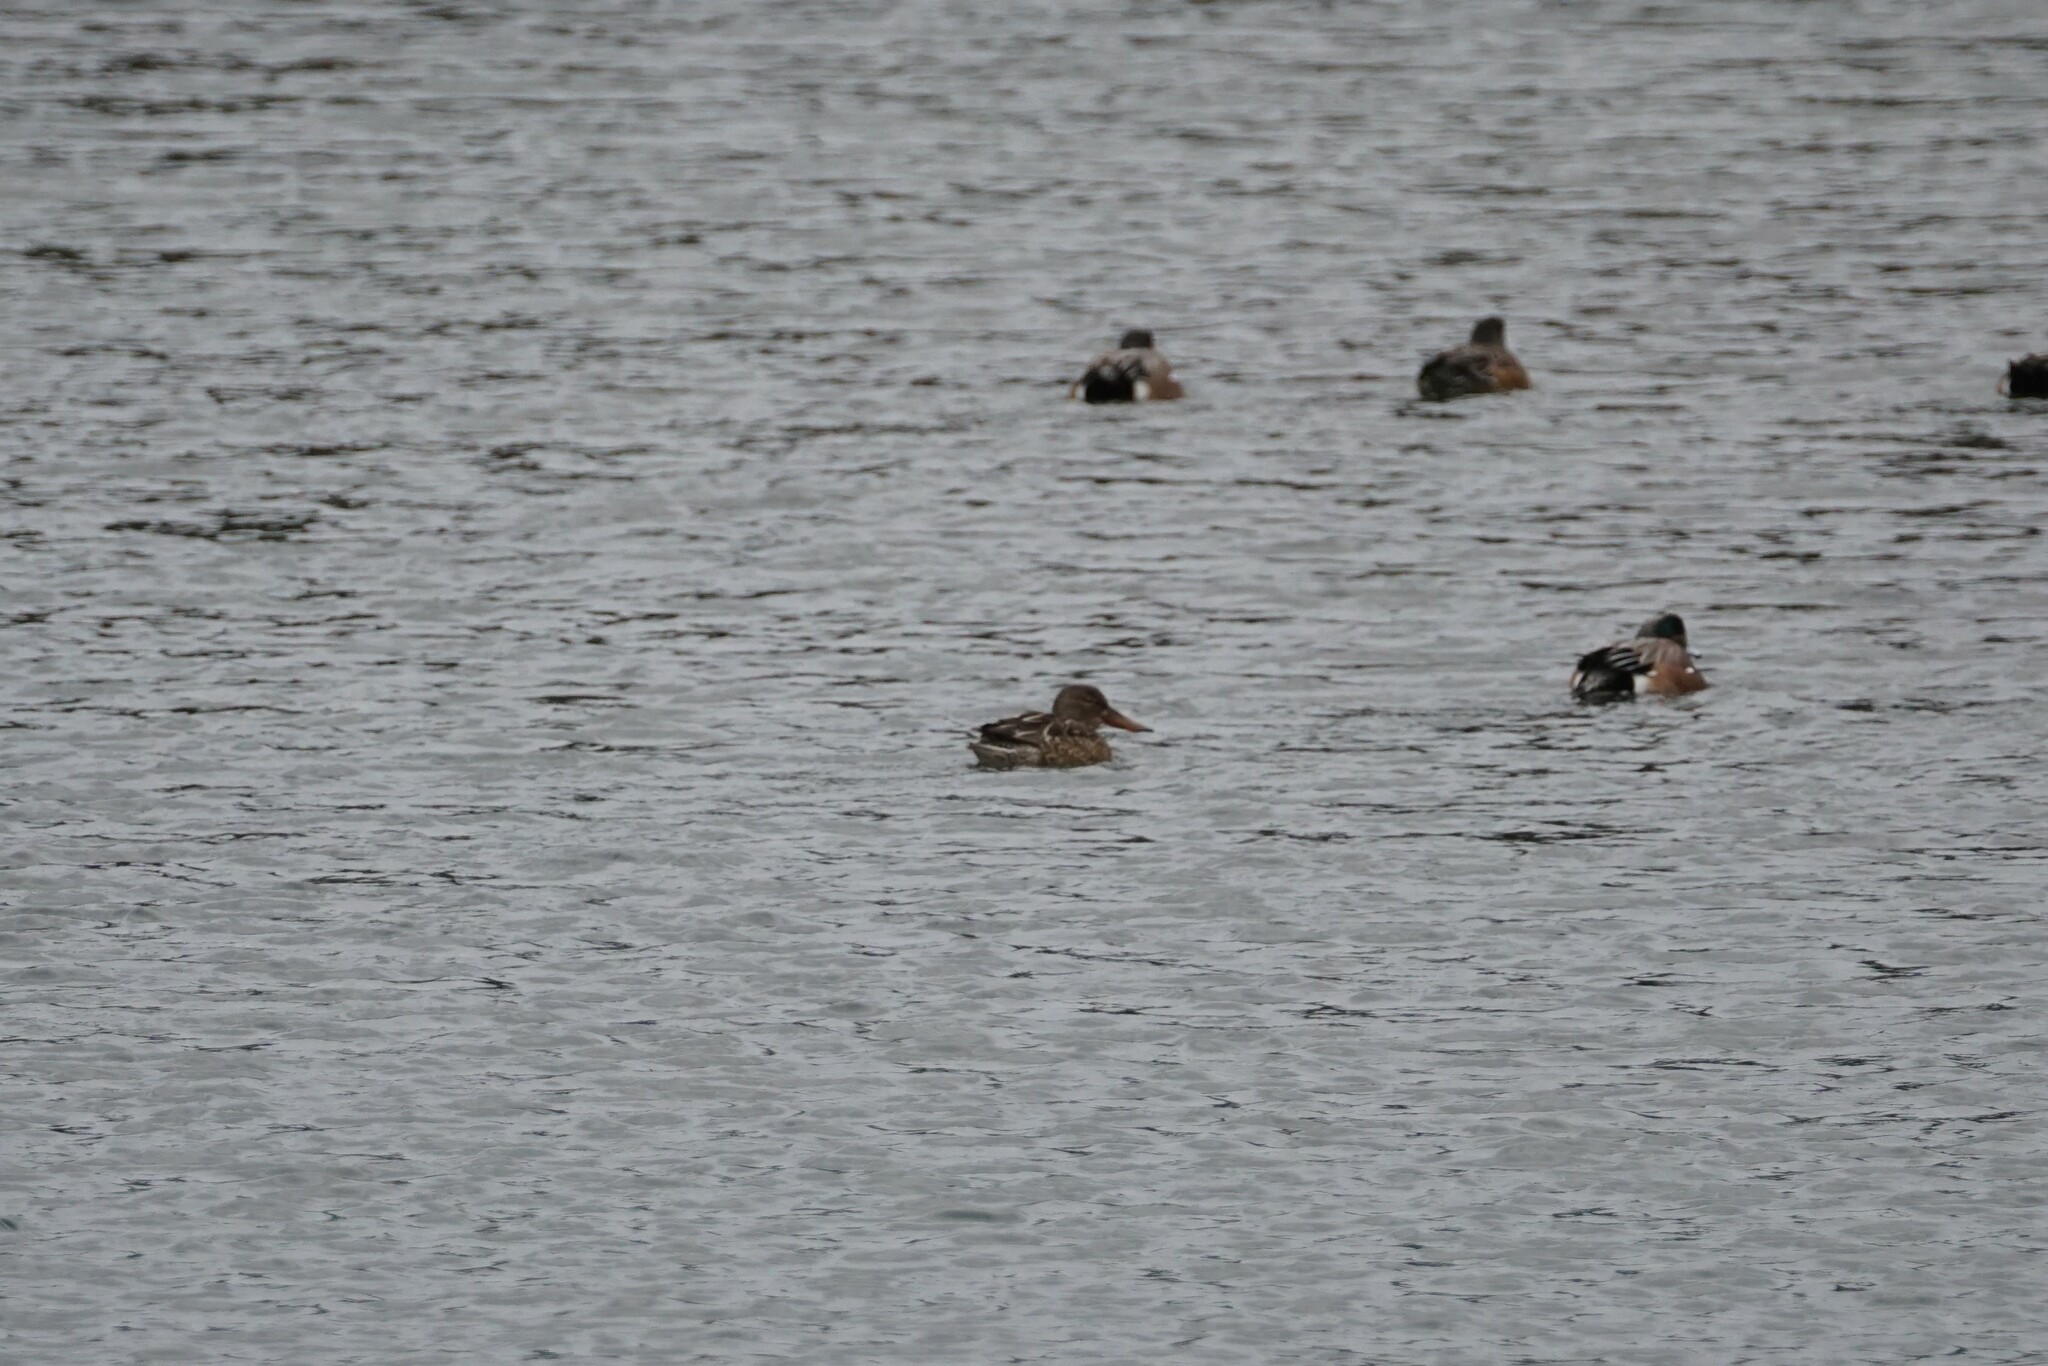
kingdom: Animalia
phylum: Chordata
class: Aves
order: Anseriformes
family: Anatidae
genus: Spatula
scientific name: Spatula clypeata
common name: Northern shoveler
